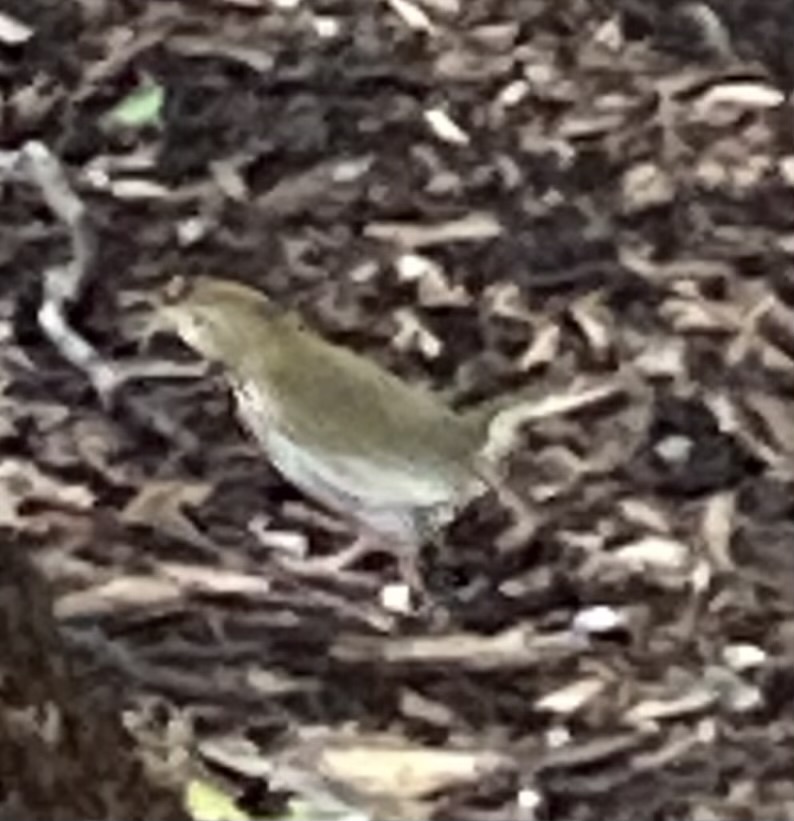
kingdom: Animalia
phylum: Chordata
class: Aves
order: Passeriformes
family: Parulidae
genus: Seiurus
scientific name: Seiurus aurocapilla
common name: Ovenbird
